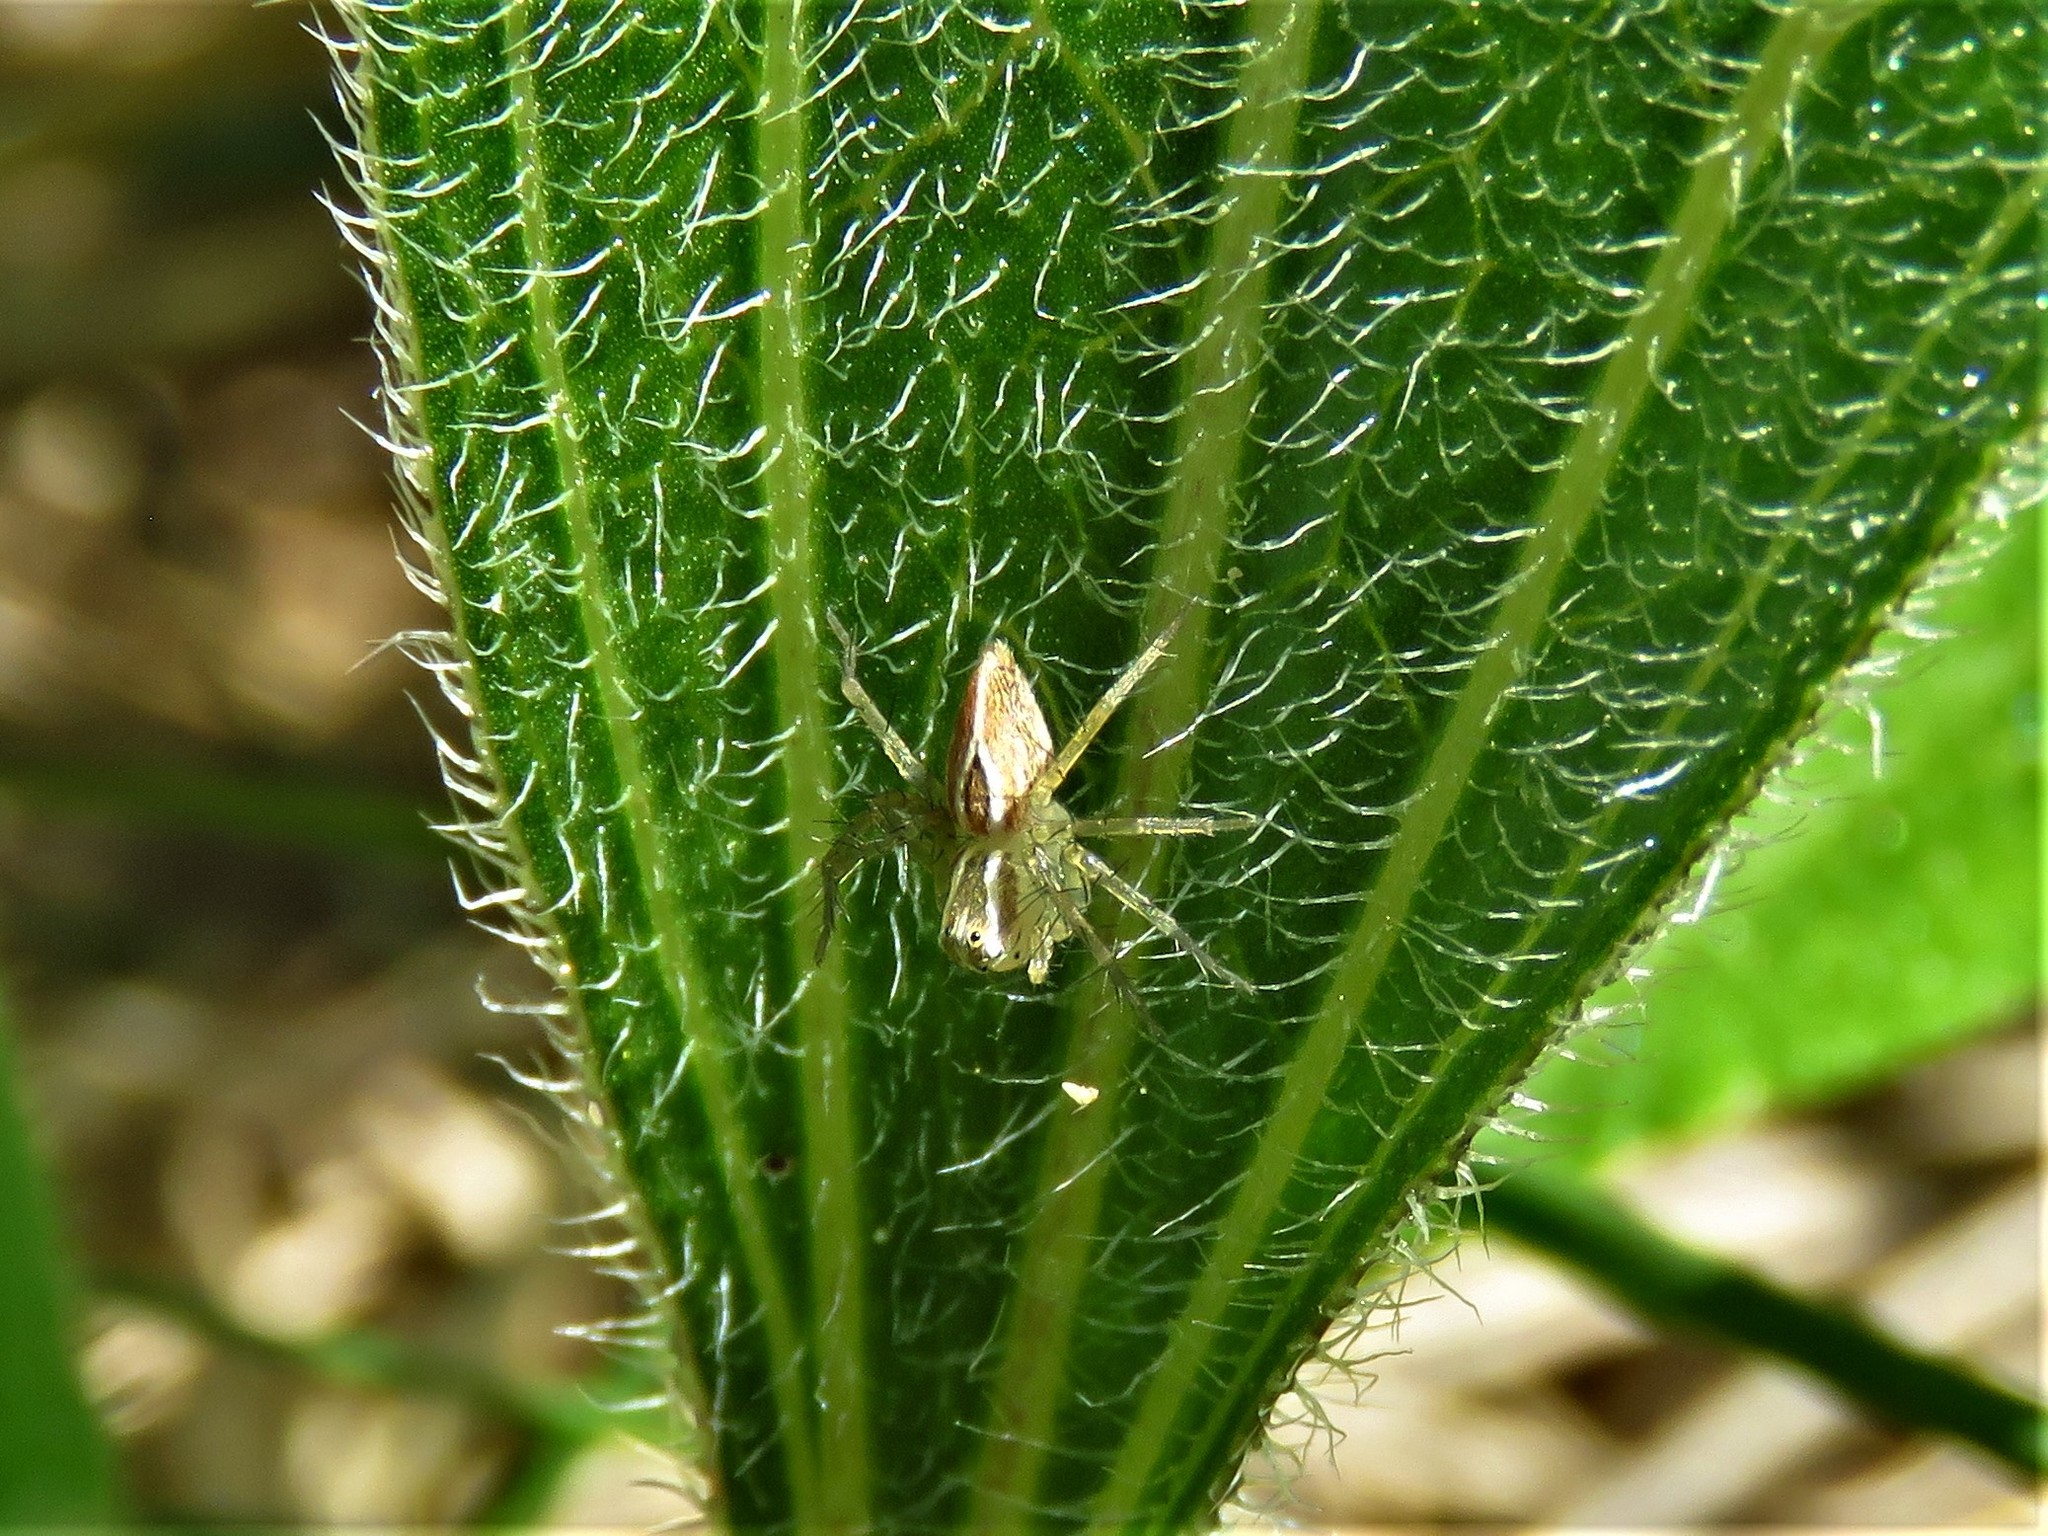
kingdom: Animalia
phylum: Arthropoda
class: Arachnida
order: Araneae
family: Oxyopidae
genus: Oxyopes
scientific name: Oxyopes salticus
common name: Lynx spiders
